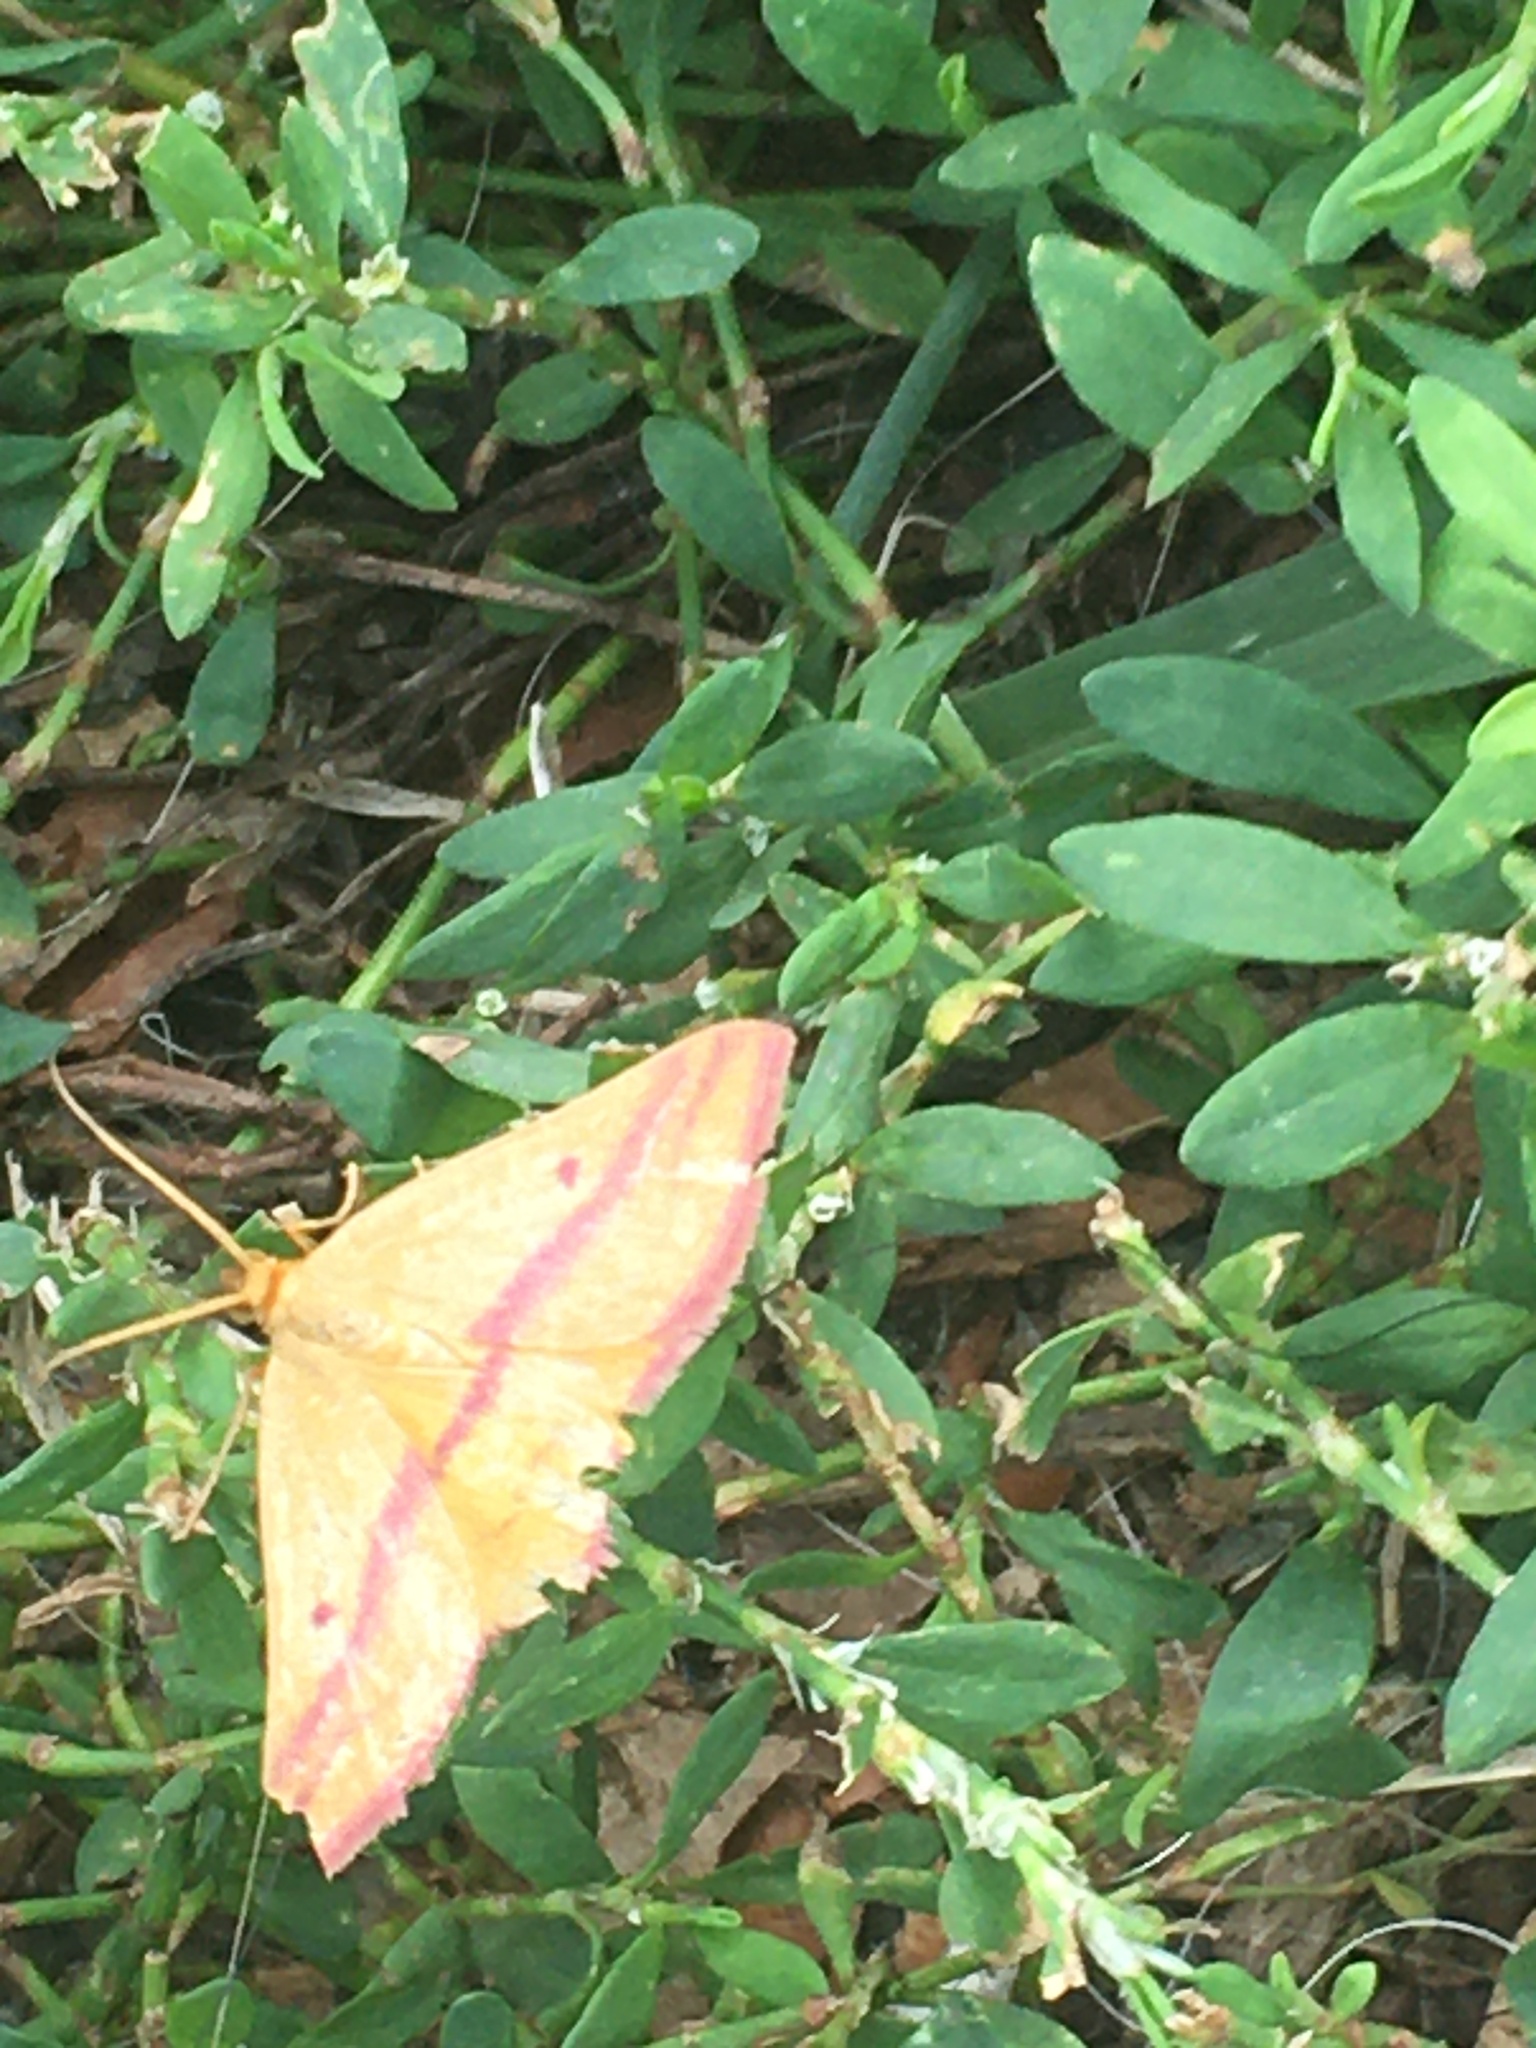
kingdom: Animalia
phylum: Arthropoda
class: Insecta
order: Lepidoptera
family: Geometridae
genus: Haematopis
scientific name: Haematopis grataria
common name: Chickweed geometer
